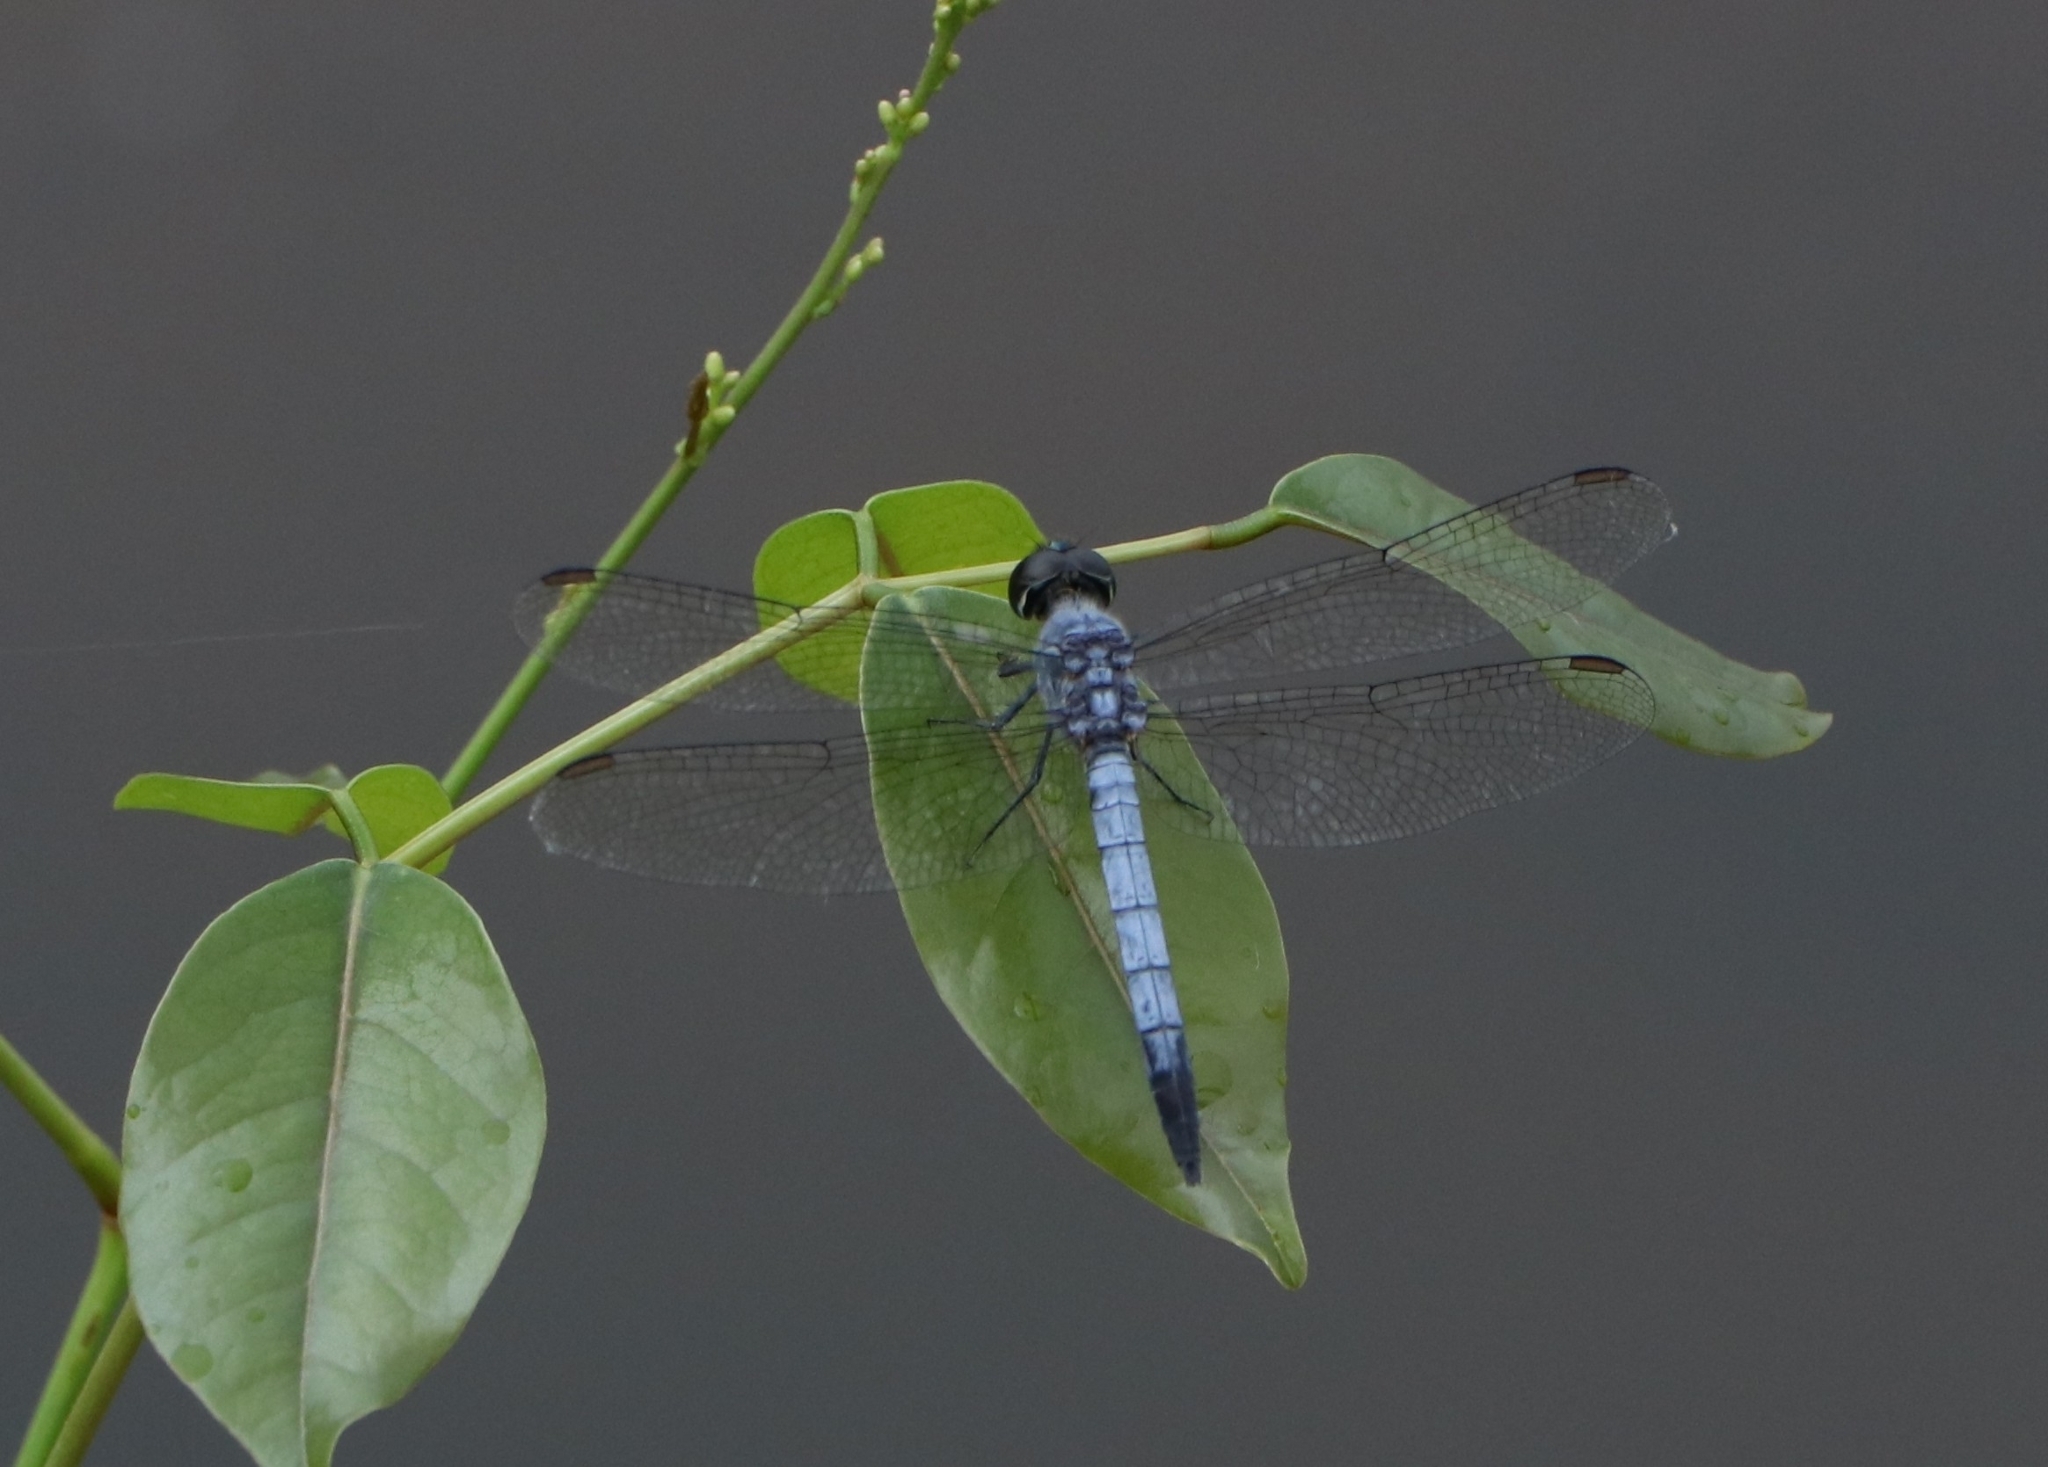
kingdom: Animalia
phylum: Arthropoda
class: Insecta
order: Odonata
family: Libellulidae
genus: Brachydiplax
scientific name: Brachydiplax sobrina
